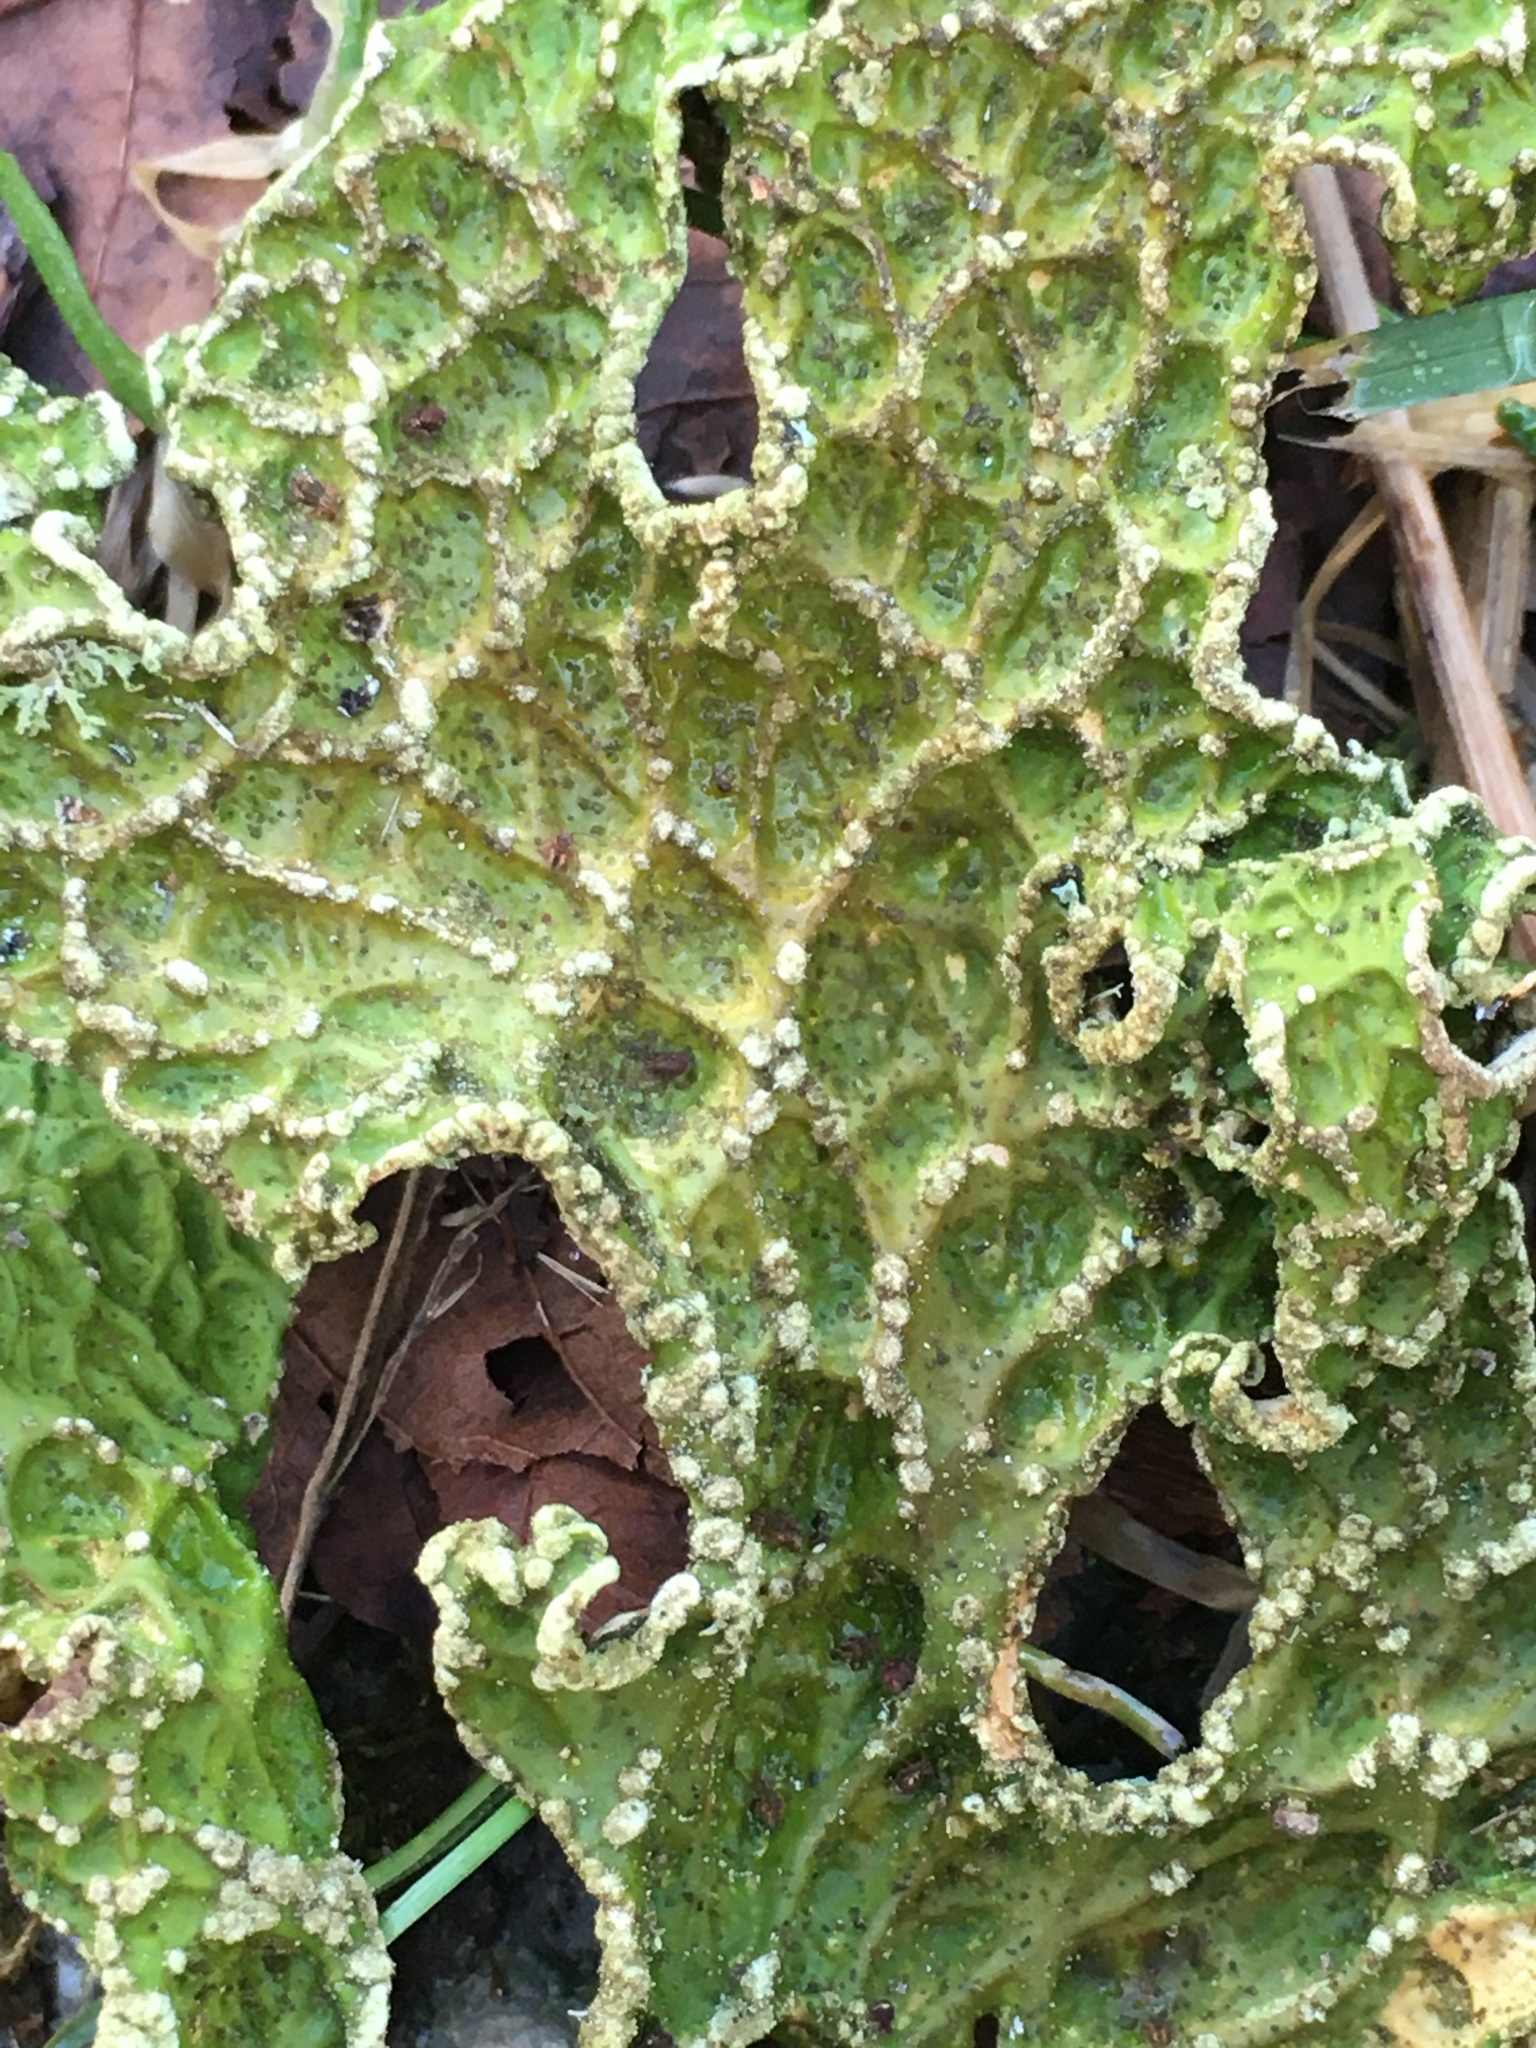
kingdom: Fungi
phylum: Ascomycota
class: Lecanoromycetes
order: Peltigerales
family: Lobariaceae
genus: Lobaria
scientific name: Lobaria pulmonaria
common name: Lungwort
